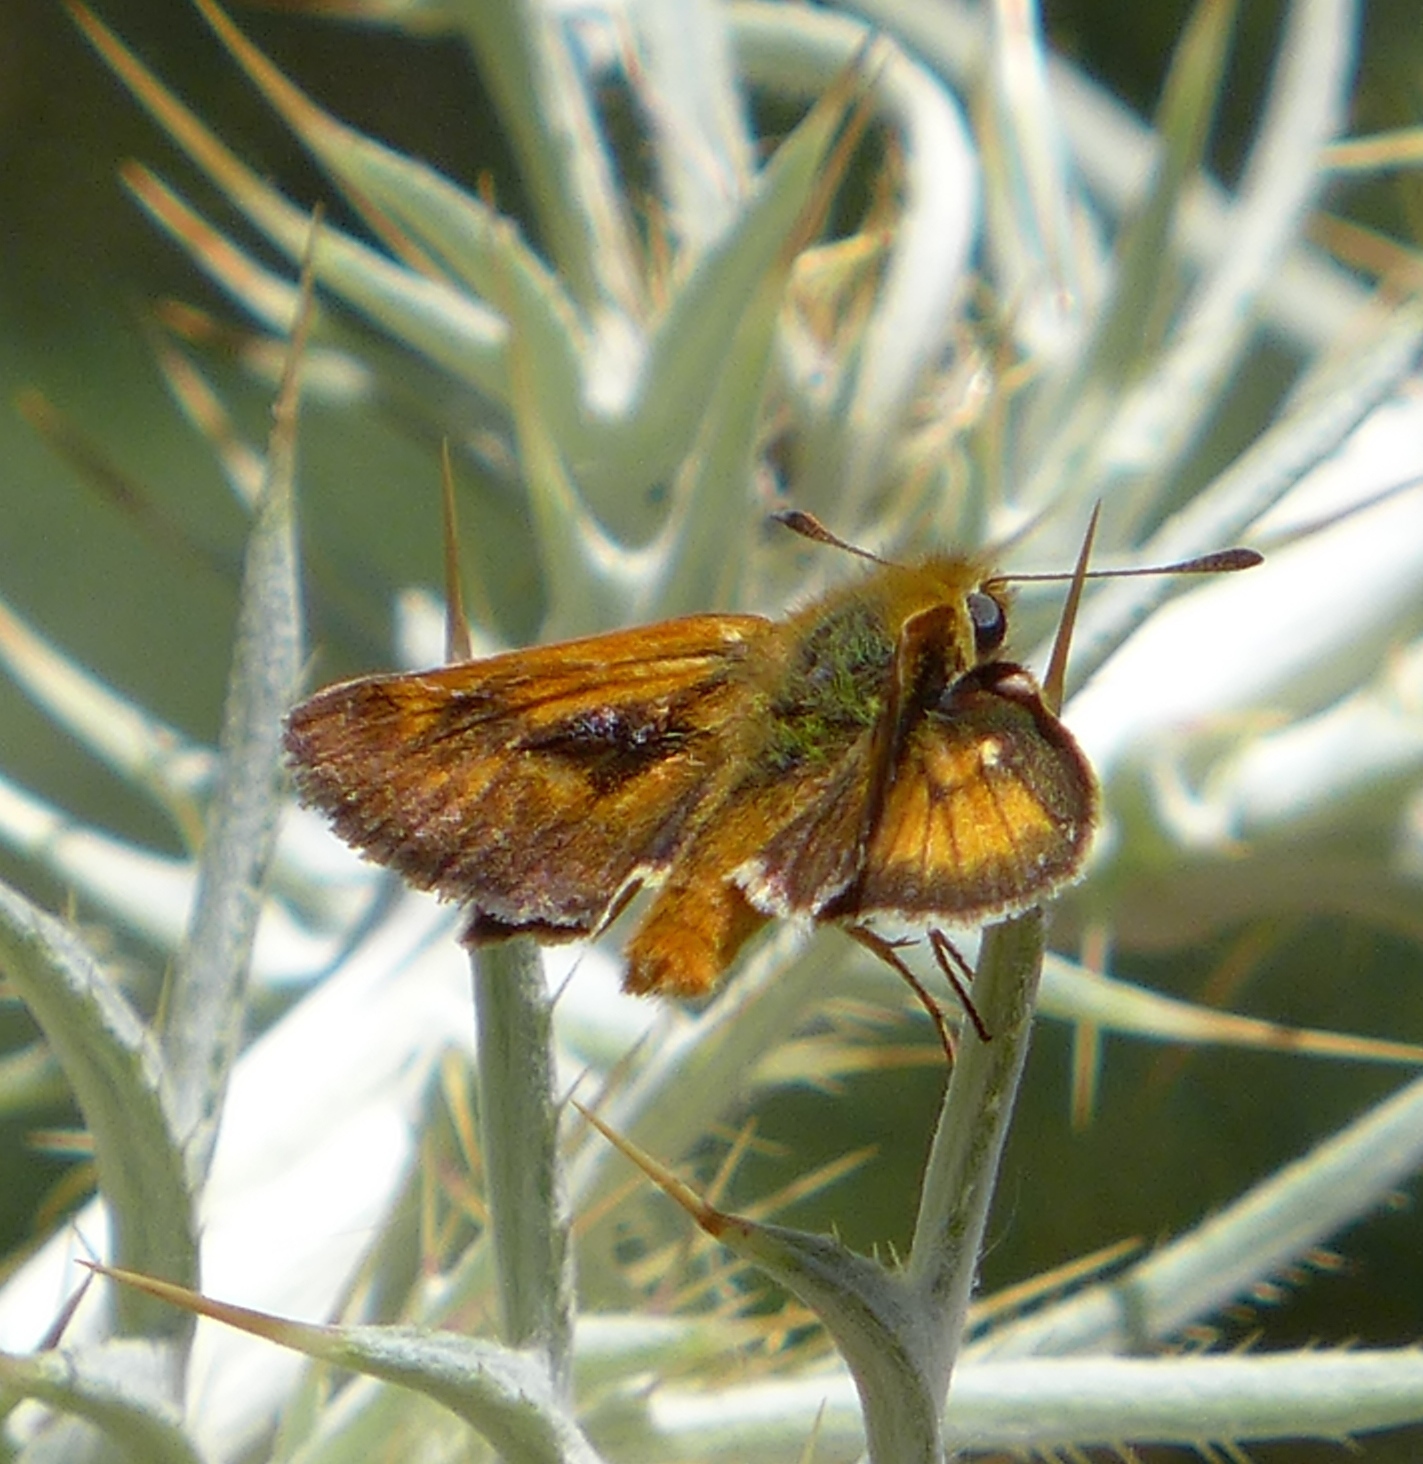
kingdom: Animalia
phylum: Arthropoda
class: Insecta
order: Lepidoptera
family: Hesperiidae
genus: Ochlodes
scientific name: Ochlodes agricola
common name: Rural skipper
